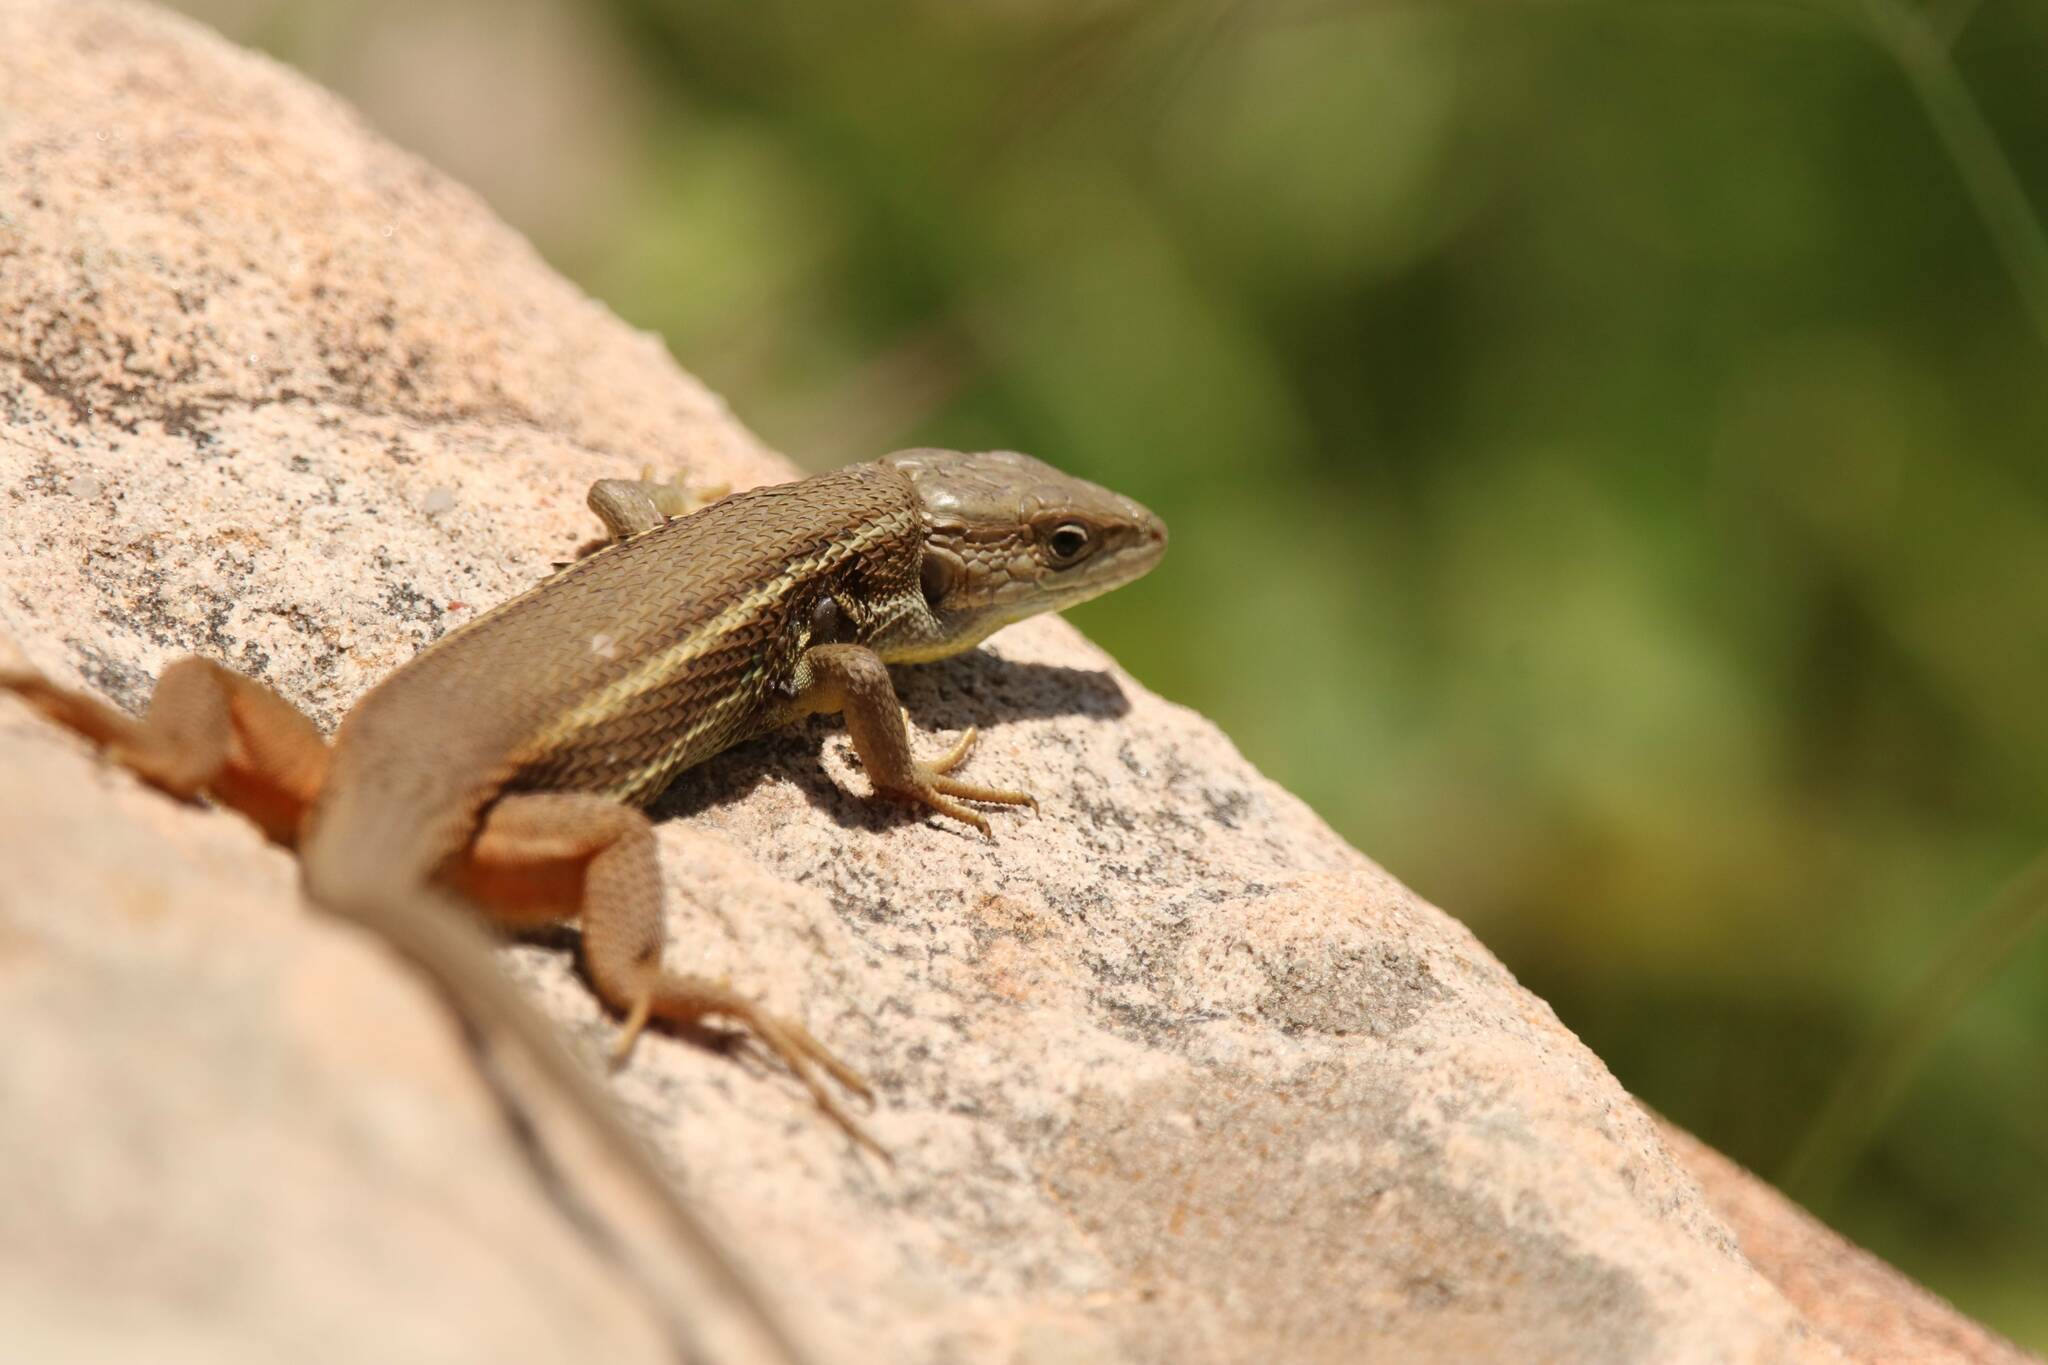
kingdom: Animalia
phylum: Chordata
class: Squamata
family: Lacertidae
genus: Psammodromus
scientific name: Psammodromus algirus
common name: Algerian psammodromus
